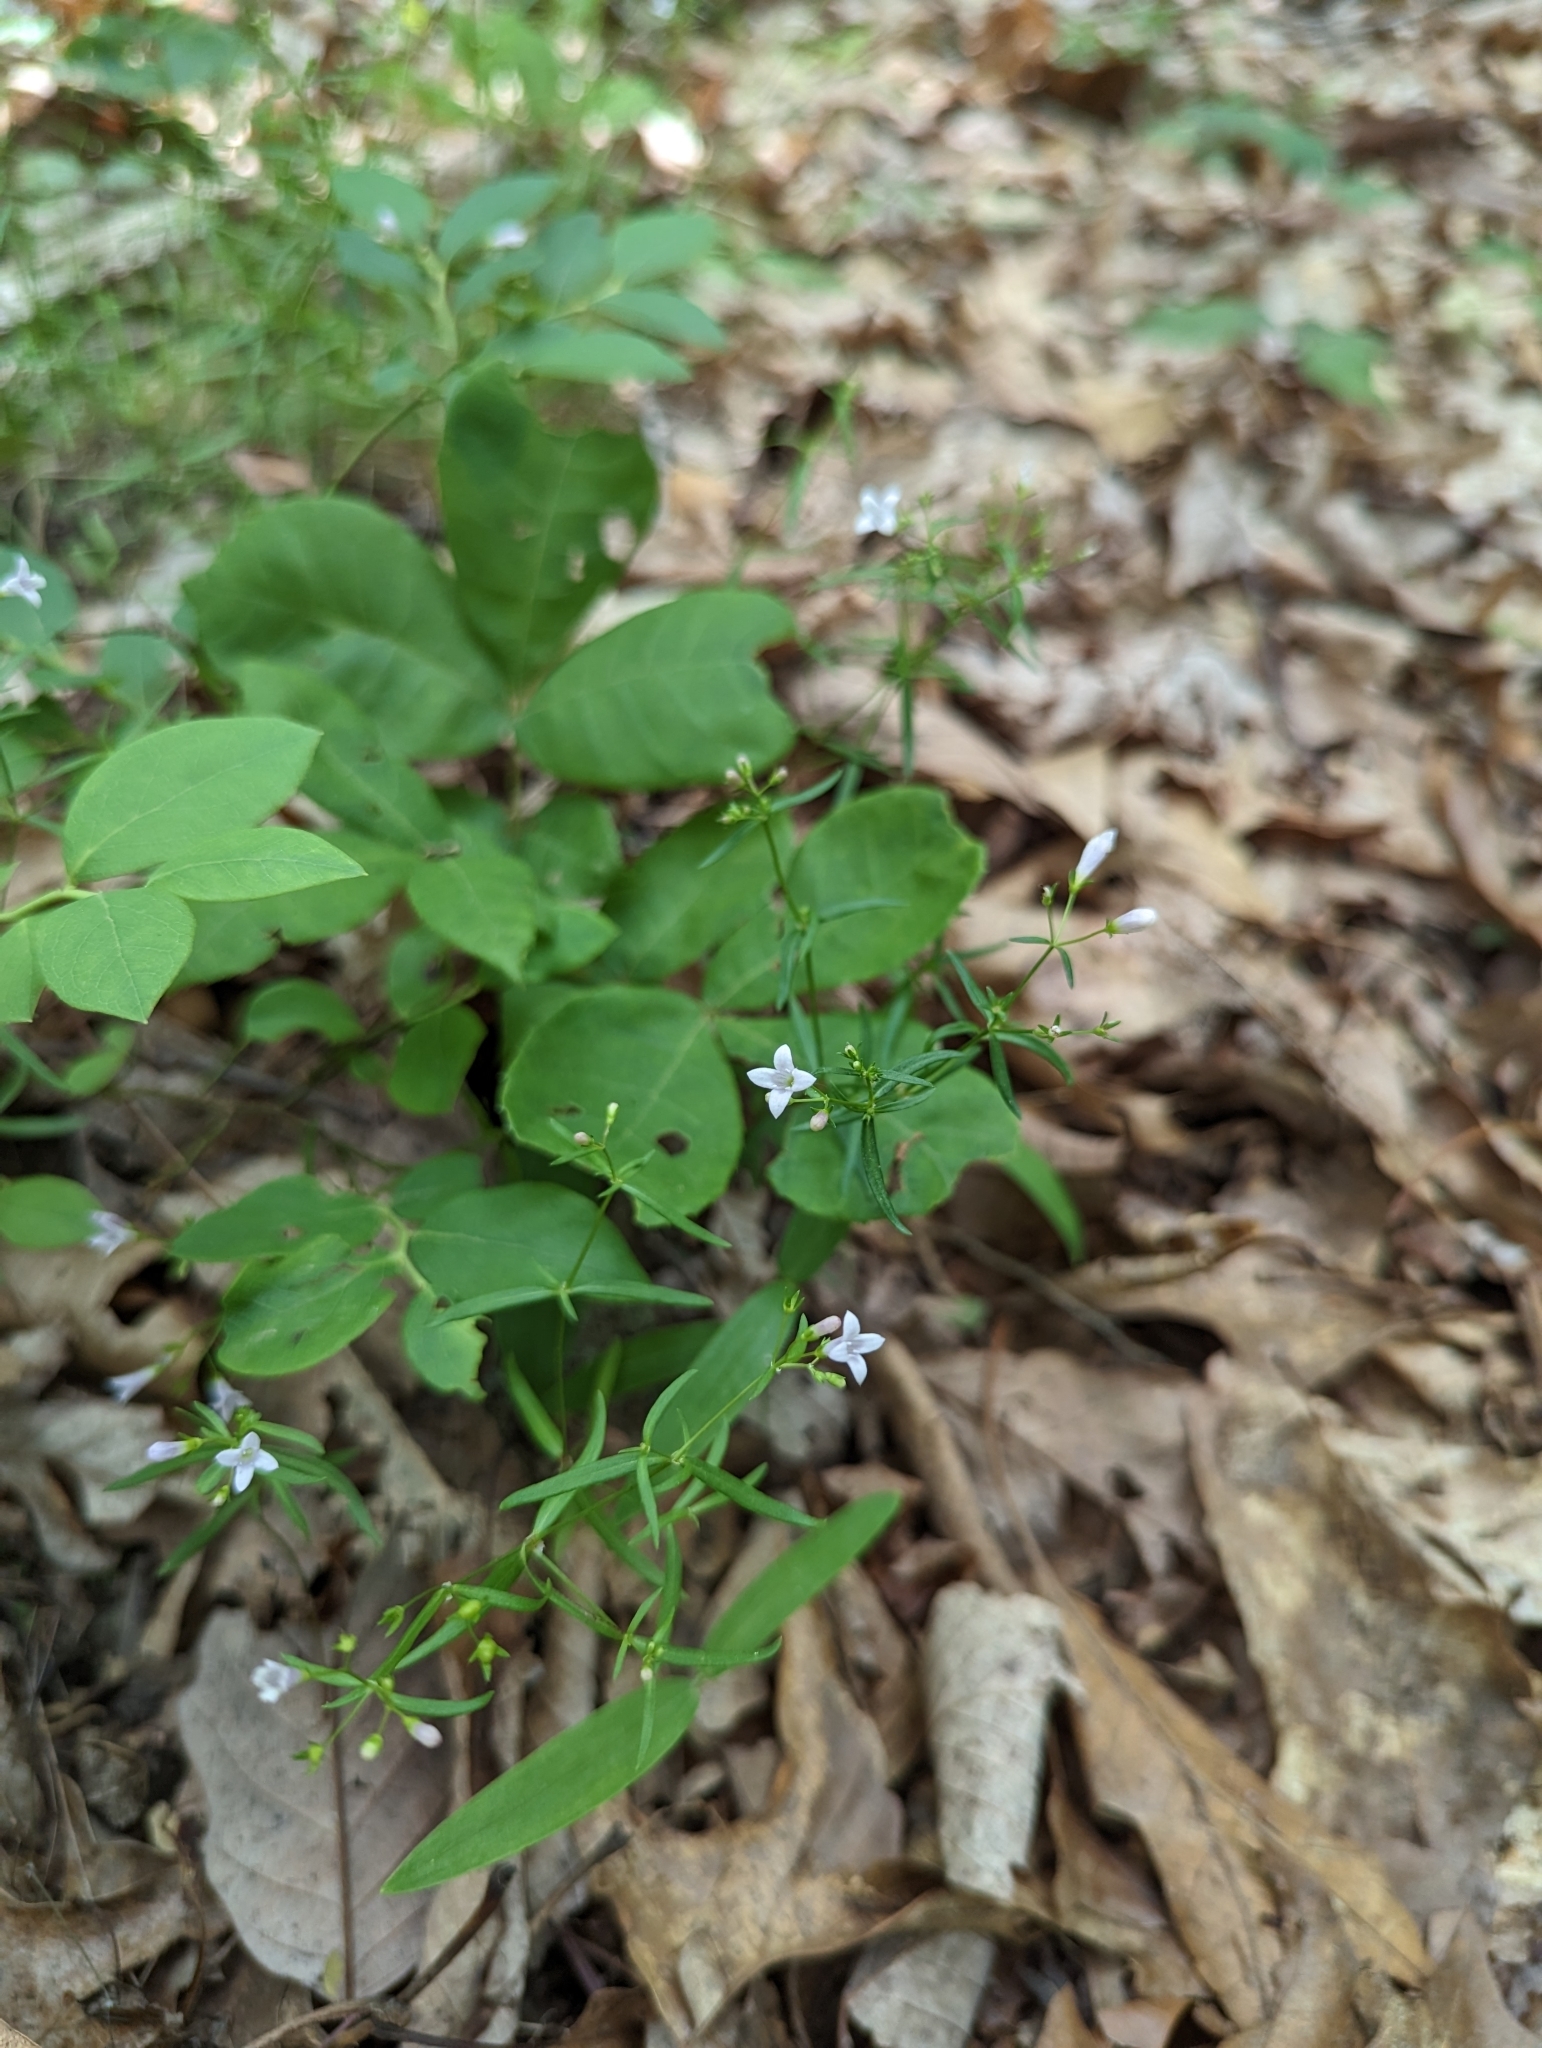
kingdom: Plantae
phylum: Tracheophyta
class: Magnoliopsida
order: Gentianales
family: Rubiaceae
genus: Houstonia
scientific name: Houstonia longifolia
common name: Long-leaved bluets
